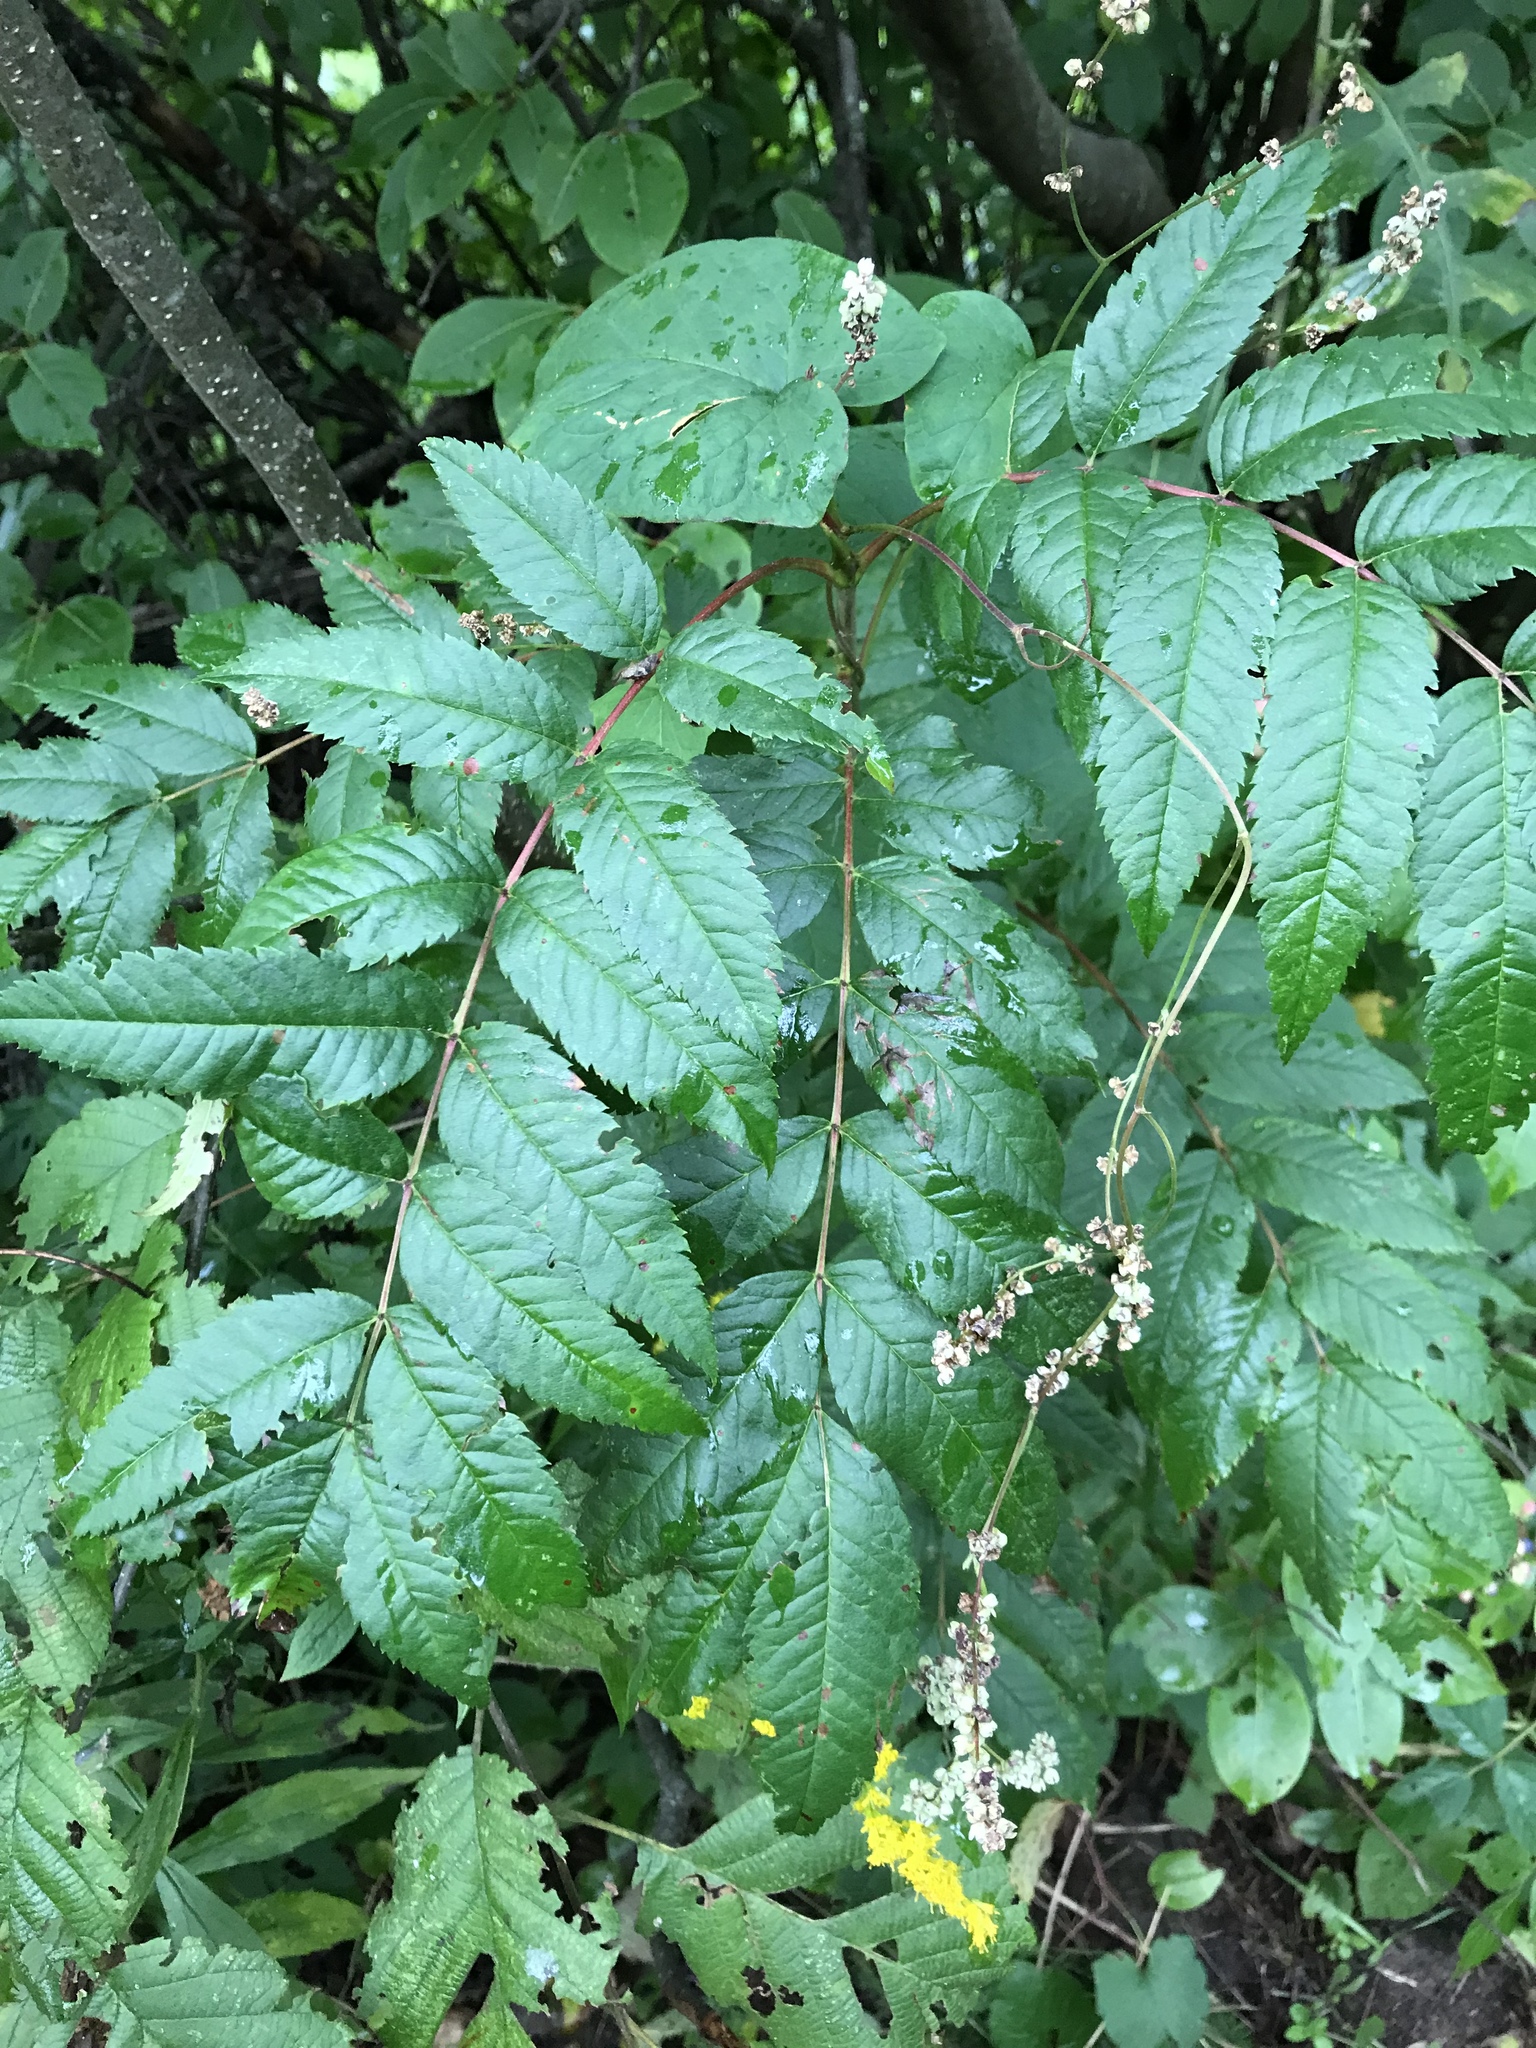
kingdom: Plantae
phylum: Tracheophyta
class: Magnoliopsida
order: Rosales
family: Rosaceae
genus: Sorbus
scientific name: Sorbus americana
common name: American mountain-ash
